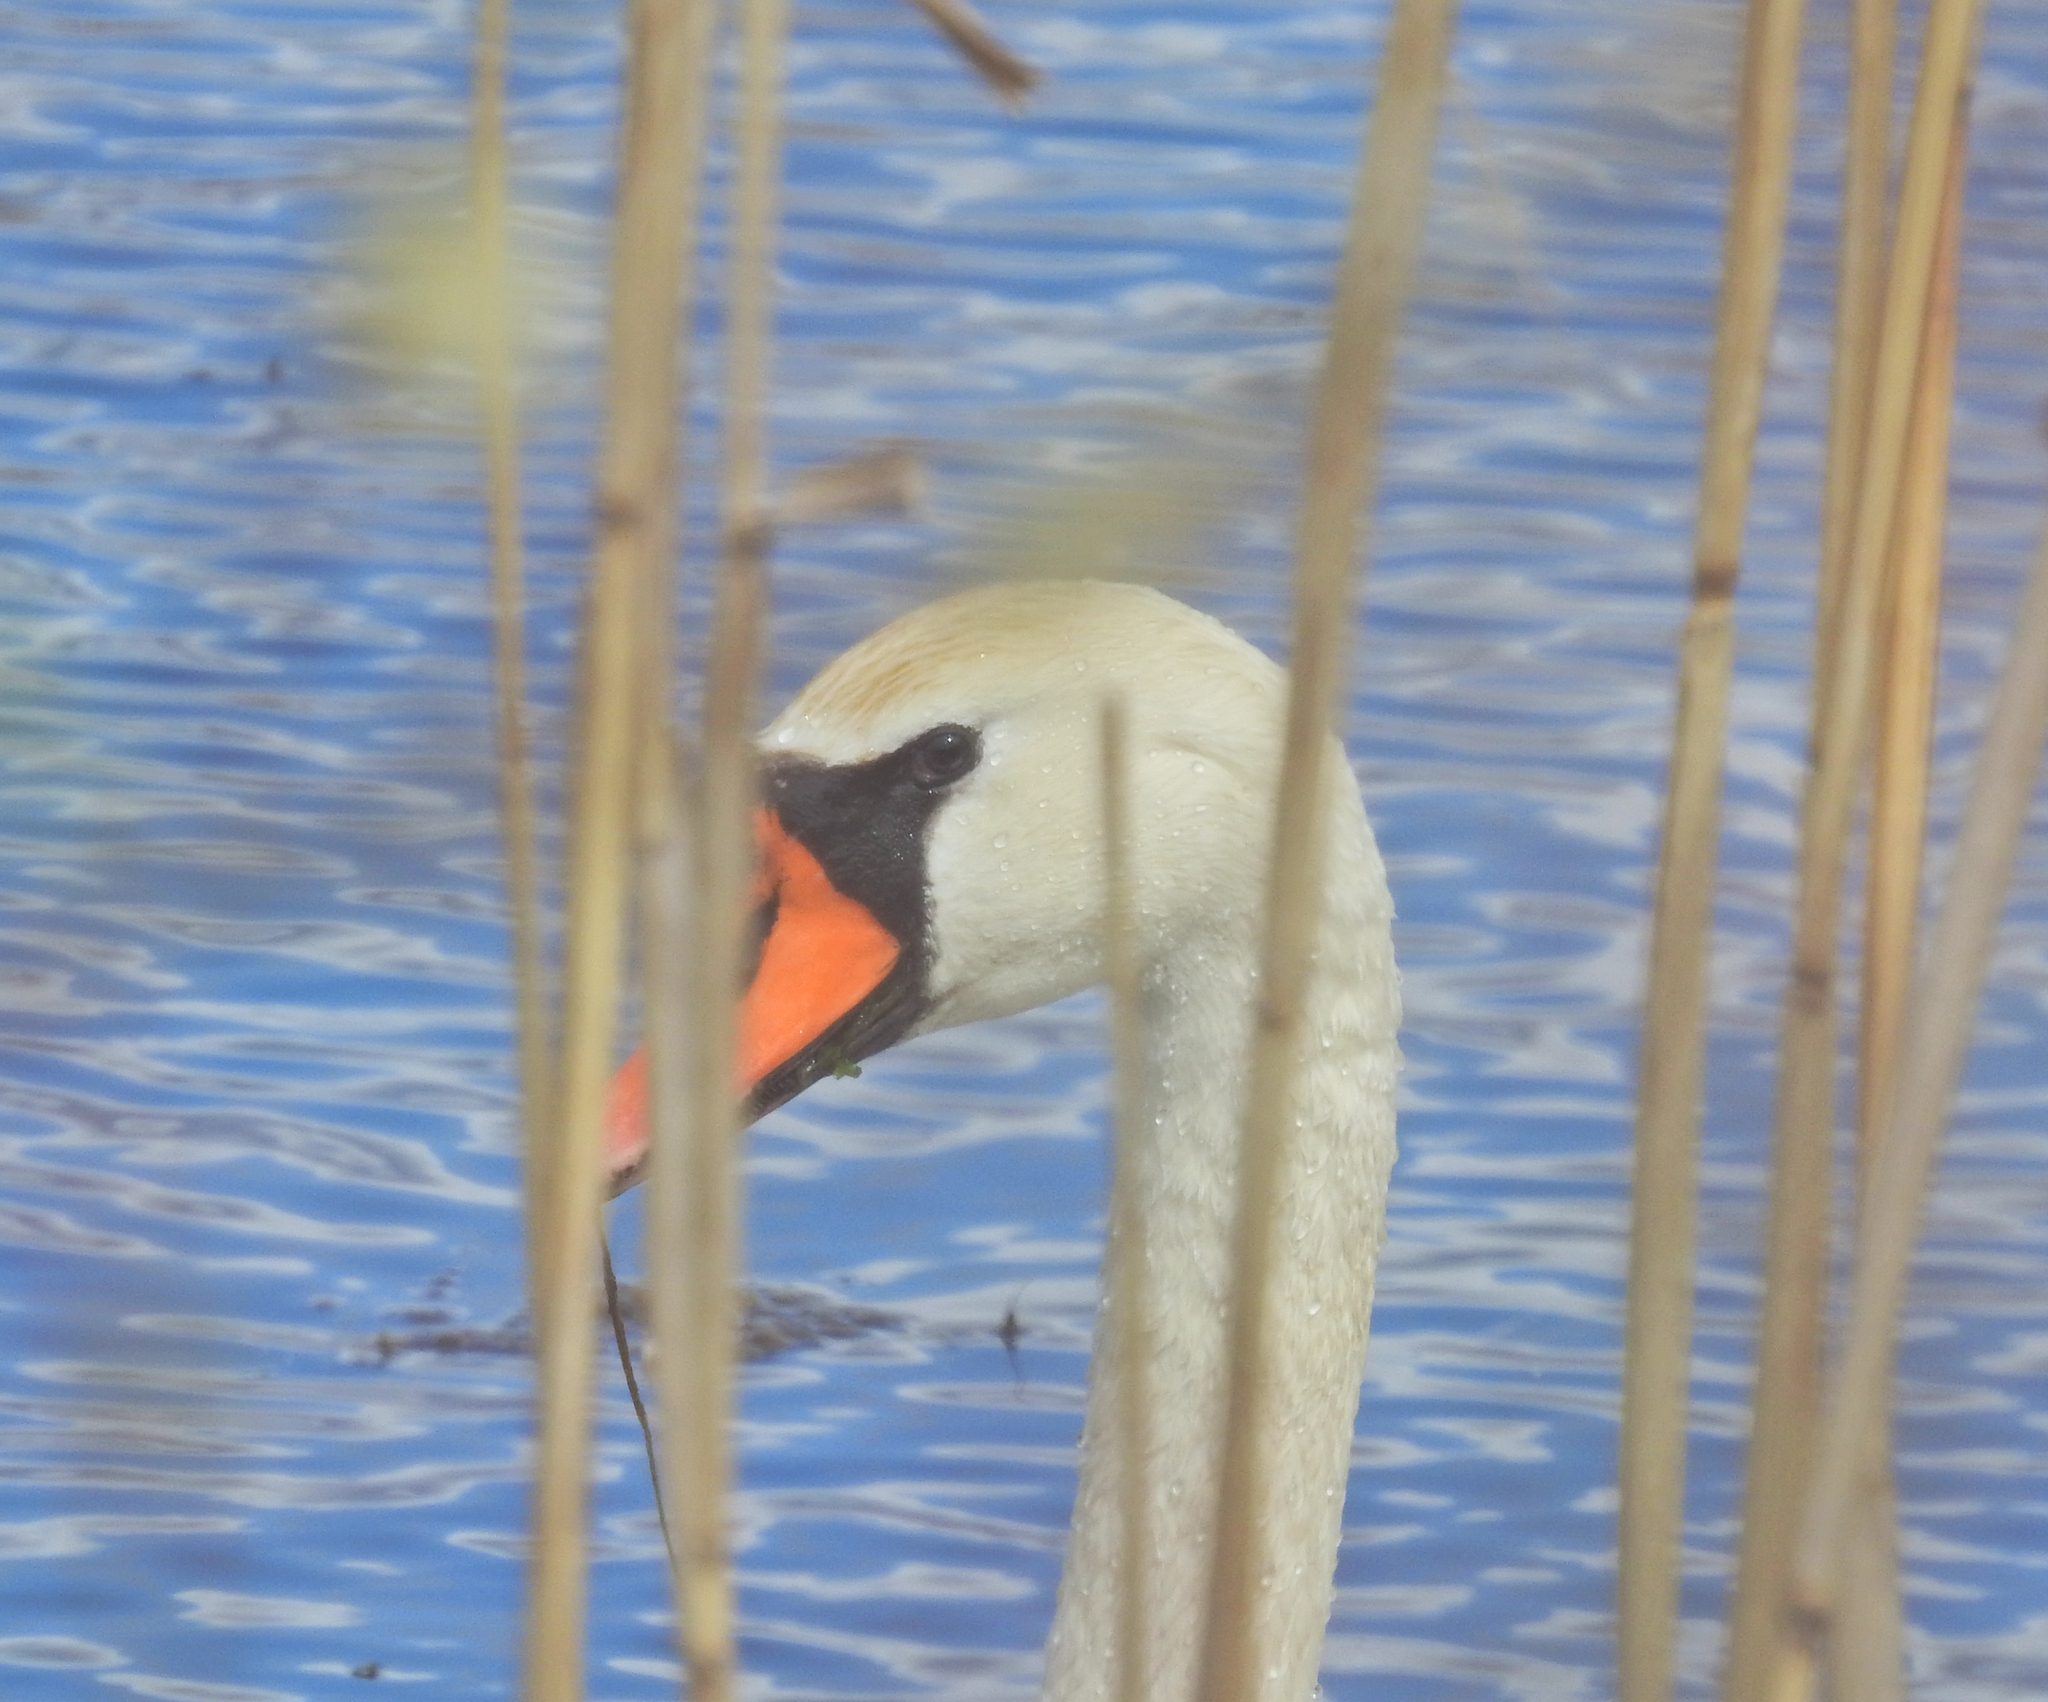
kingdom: Animalia
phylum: Chordata
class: Aves
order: Anseriformes
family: Anatidae
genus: Cygnus
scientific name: Cygnus olor
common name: Mute swan
